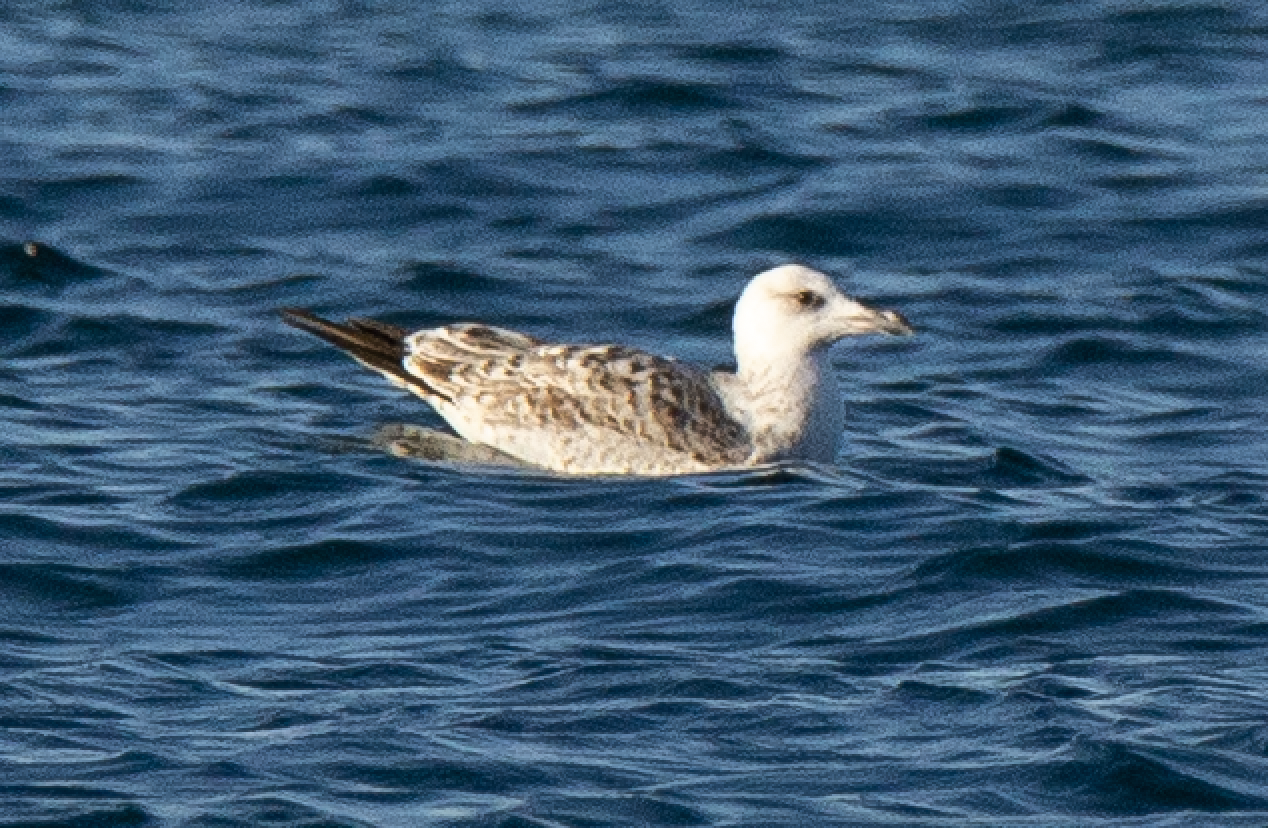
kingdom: Animalia
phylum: Chordata
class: Aves
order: Charadriiformes
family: Laridae
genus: Larus
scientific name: Larus michahellis
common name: Yellow-legged gull
